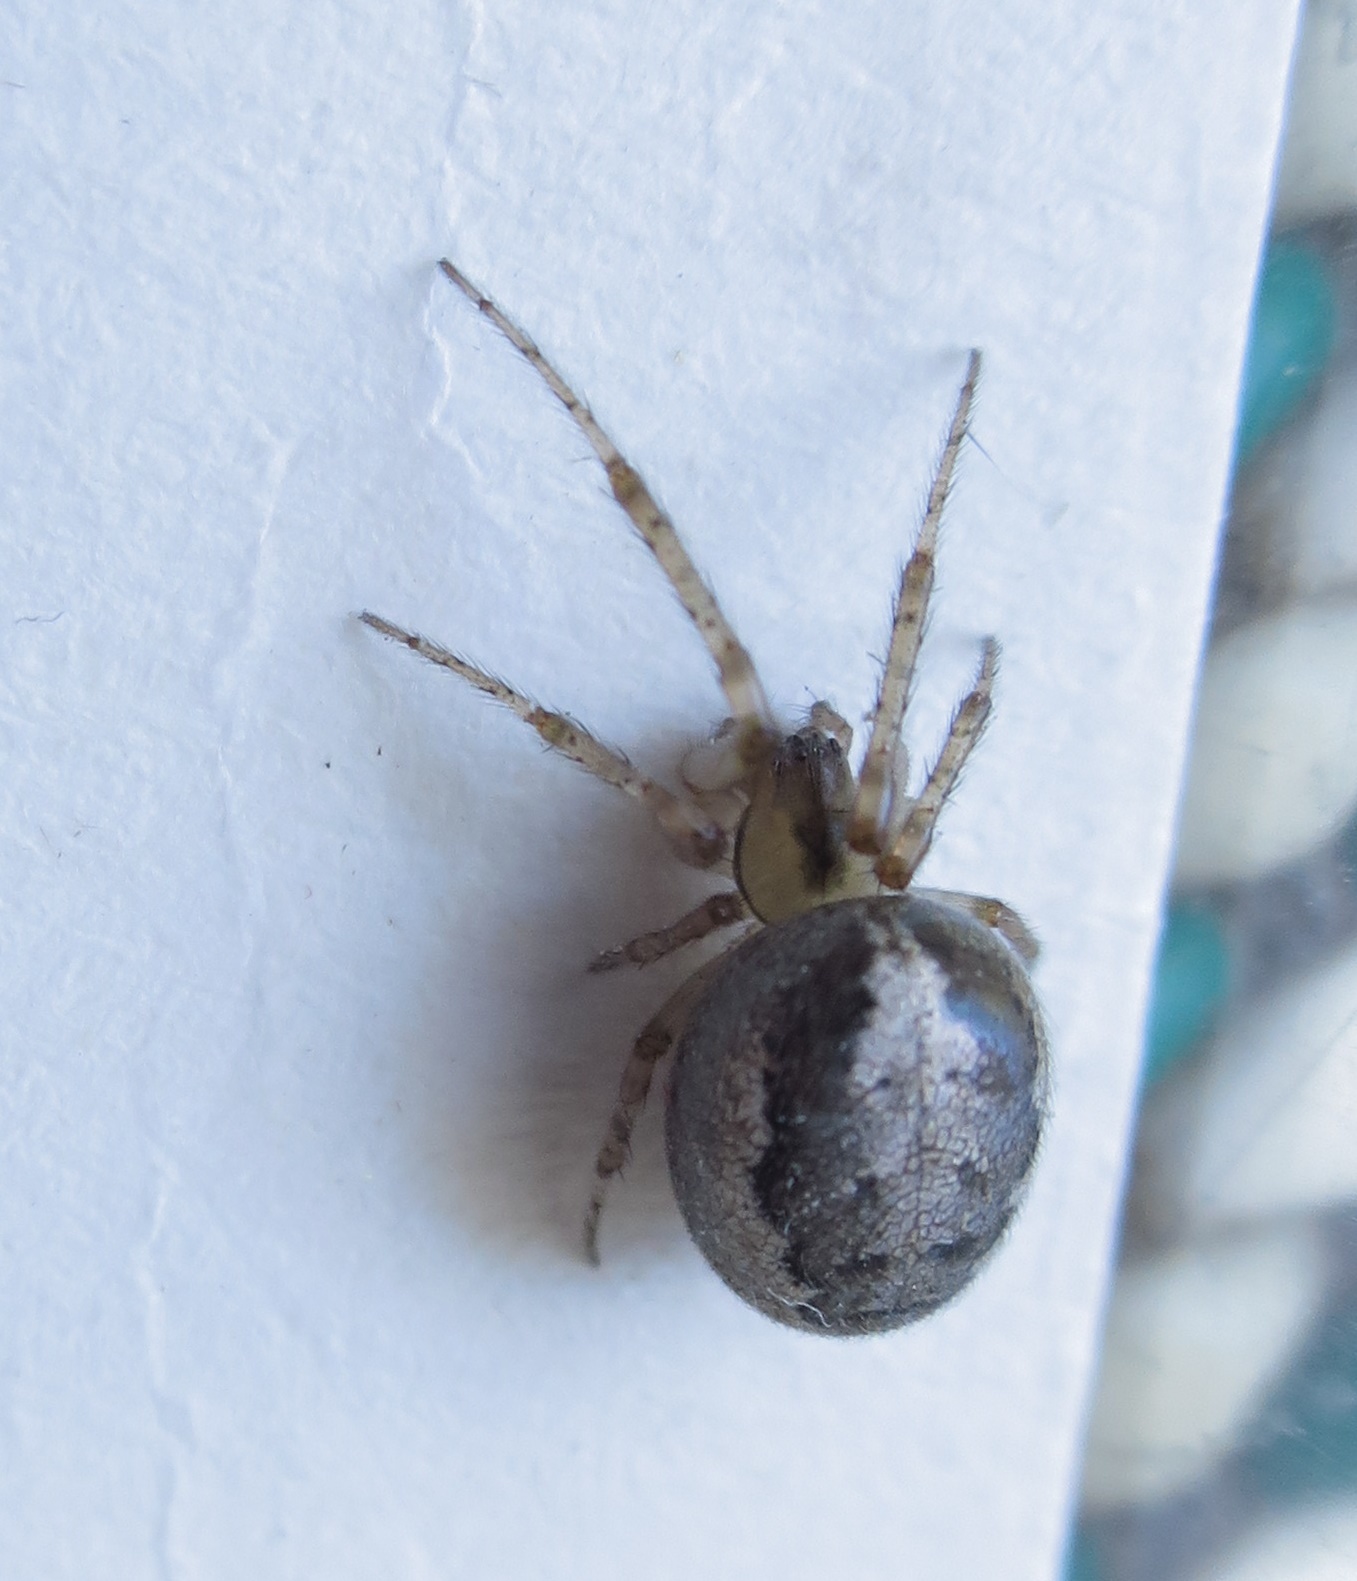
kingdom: Animalia
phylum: Arthropoda
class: Arachnida
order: Araneae
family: Araneidae
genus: Zygiella
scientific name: Zygiella x-notata
